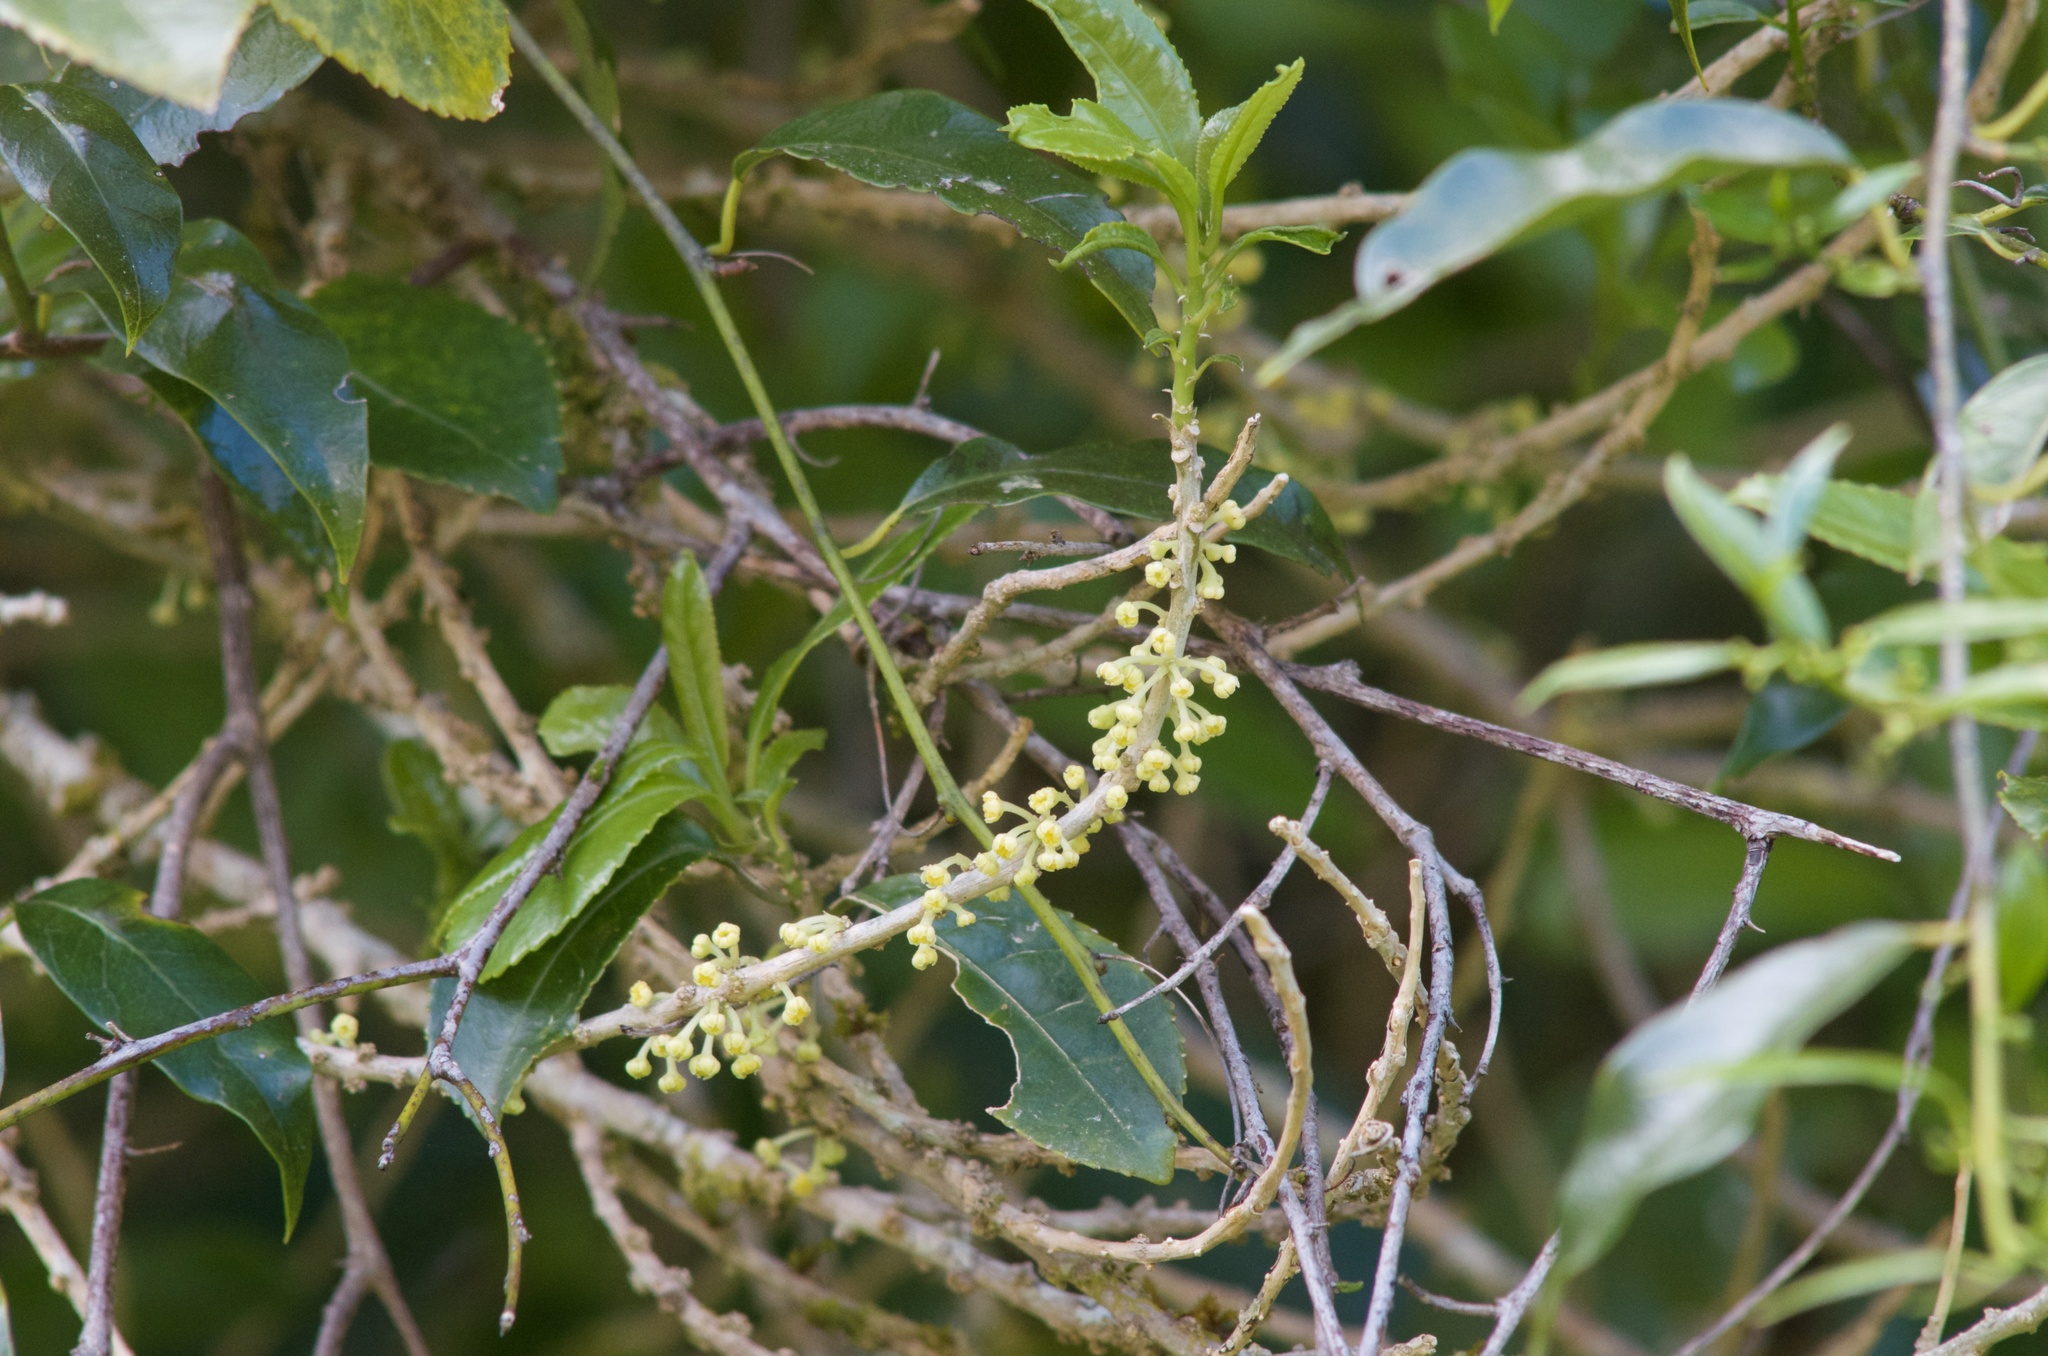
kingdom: Plantae
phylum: Tracheophyta
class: Magnoliopsida
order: Malpighiales
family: Violaceae
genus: Melicytus
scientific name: Melicytus ramiflorus
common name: Mahoe
